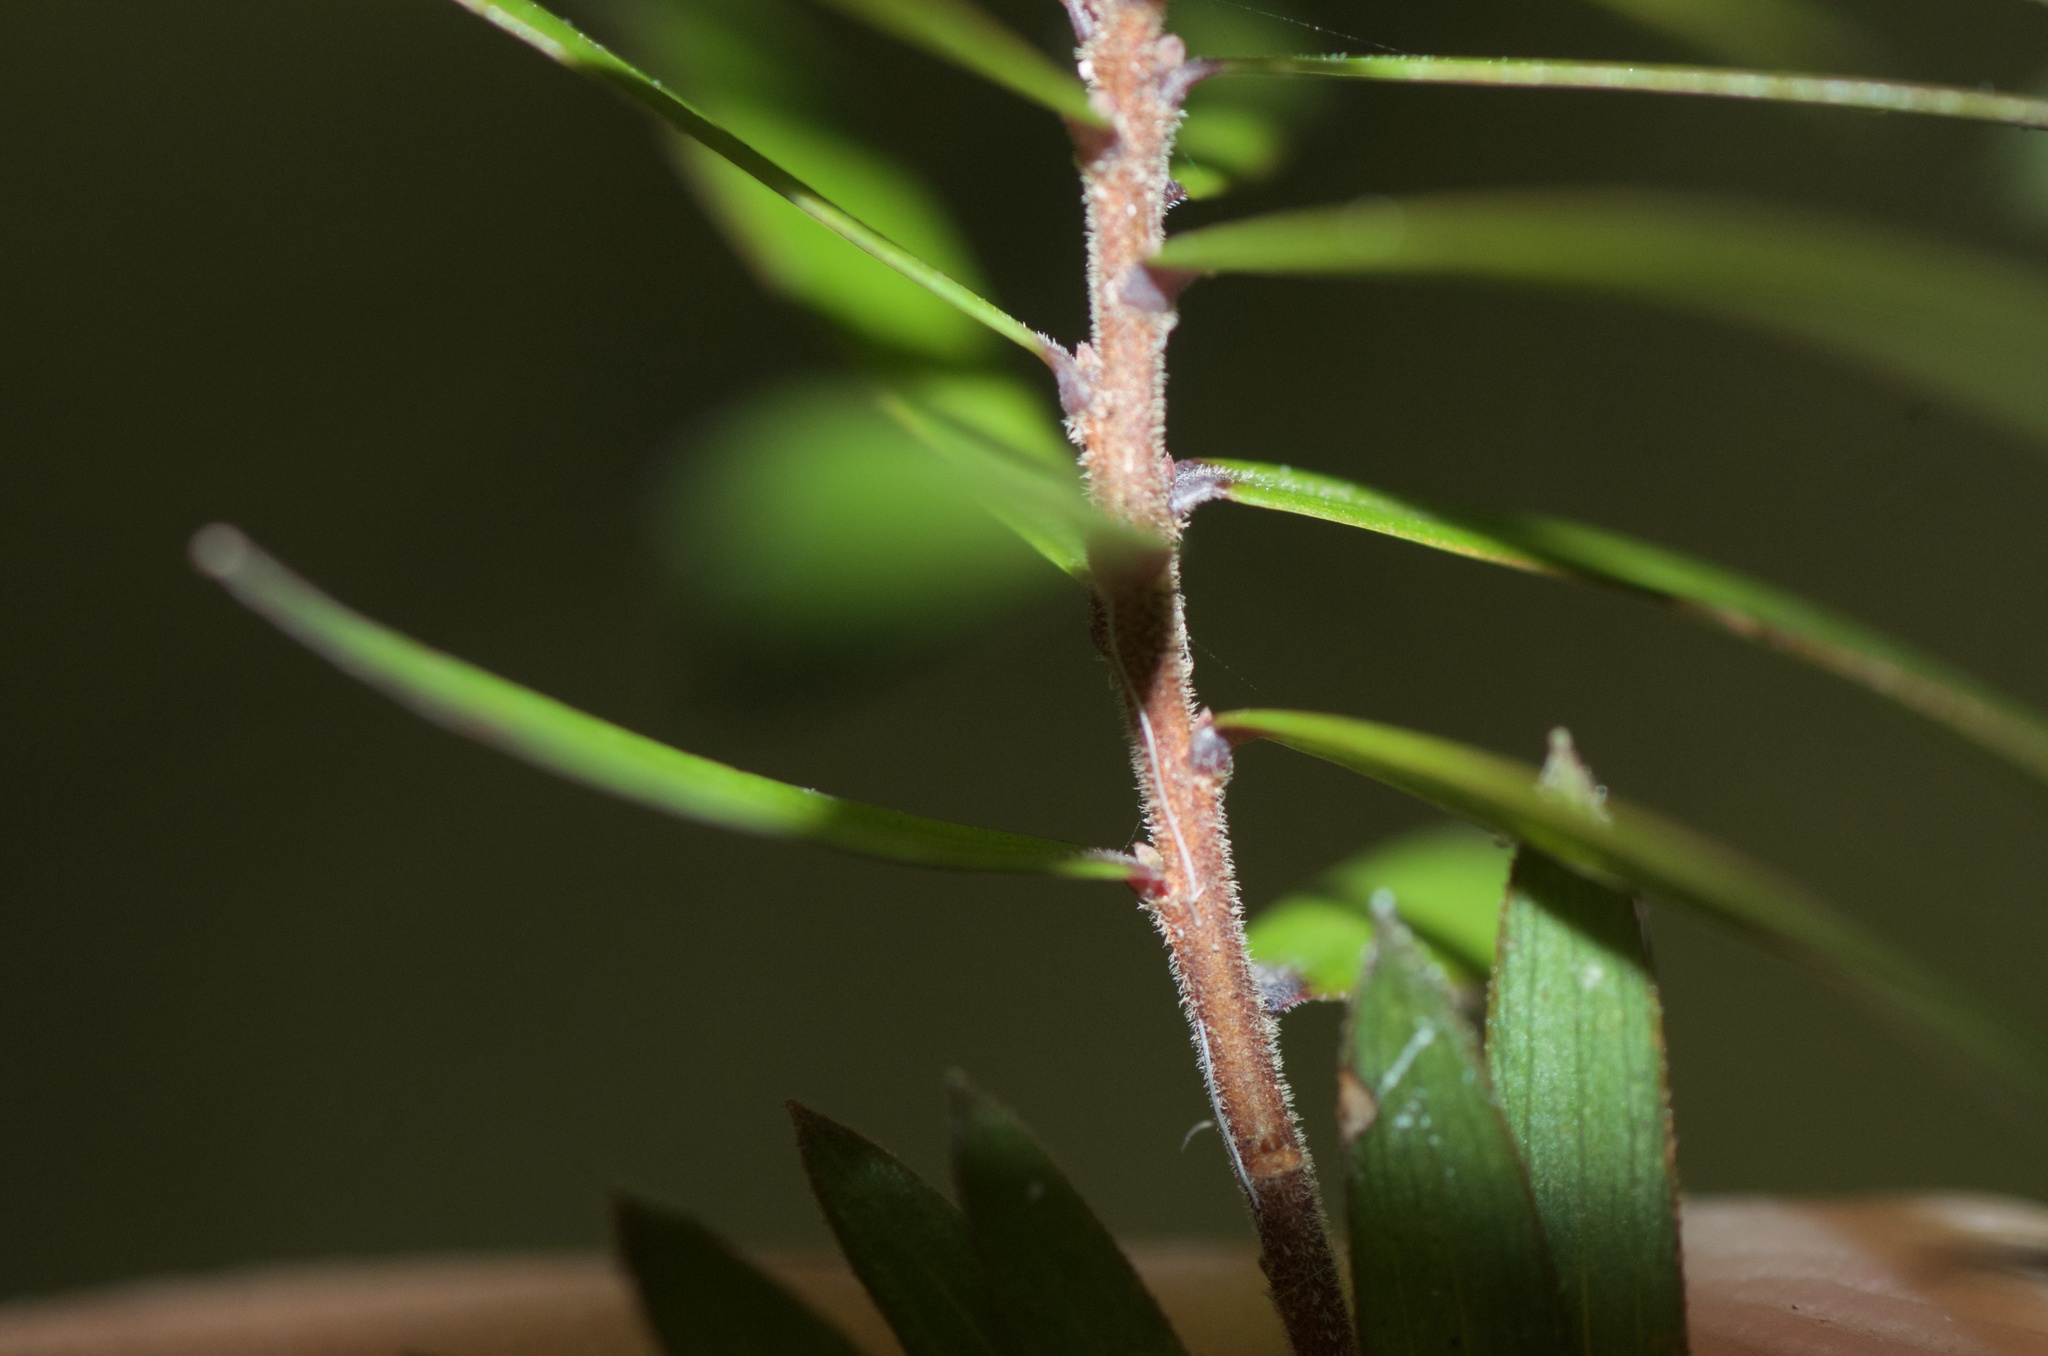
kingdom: Plantae
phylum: Tracheophyta
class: Magnoliopsida
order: Ericales
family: Ericaceae
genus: Leucopogon
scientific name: Leucopogon fasciculatus
